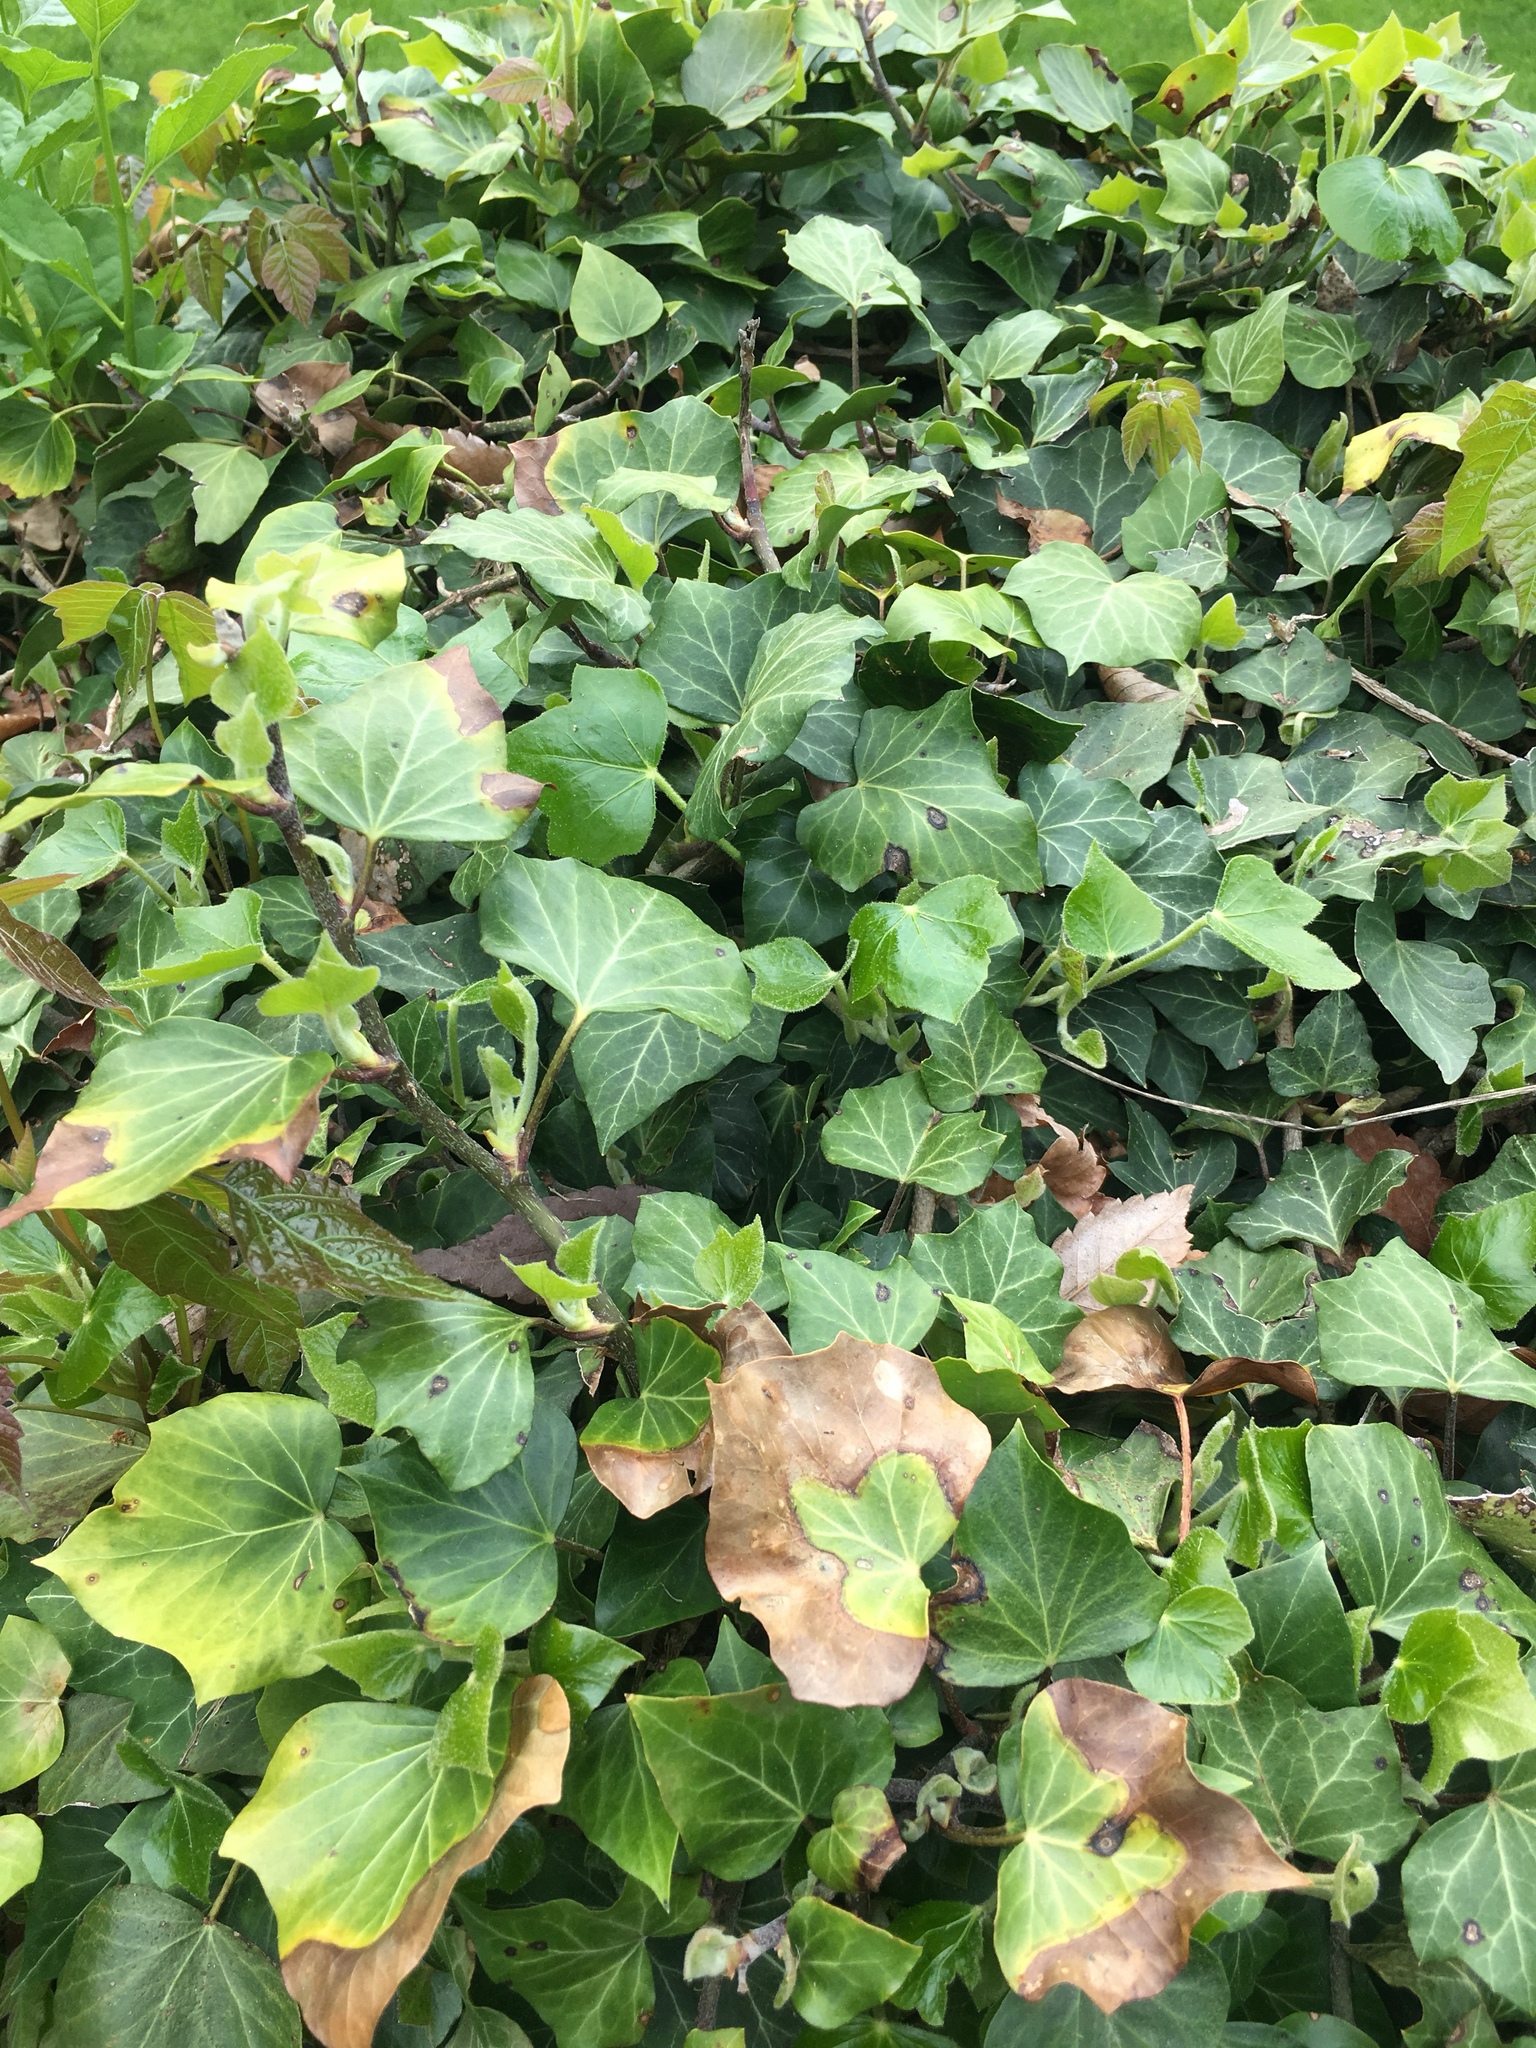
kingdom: Plantae
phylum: Tracheophyta
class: Magnoliopsida
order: Apiales
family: Araliaceae
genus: Hedera
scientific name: Hedera helix
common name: Ivy
